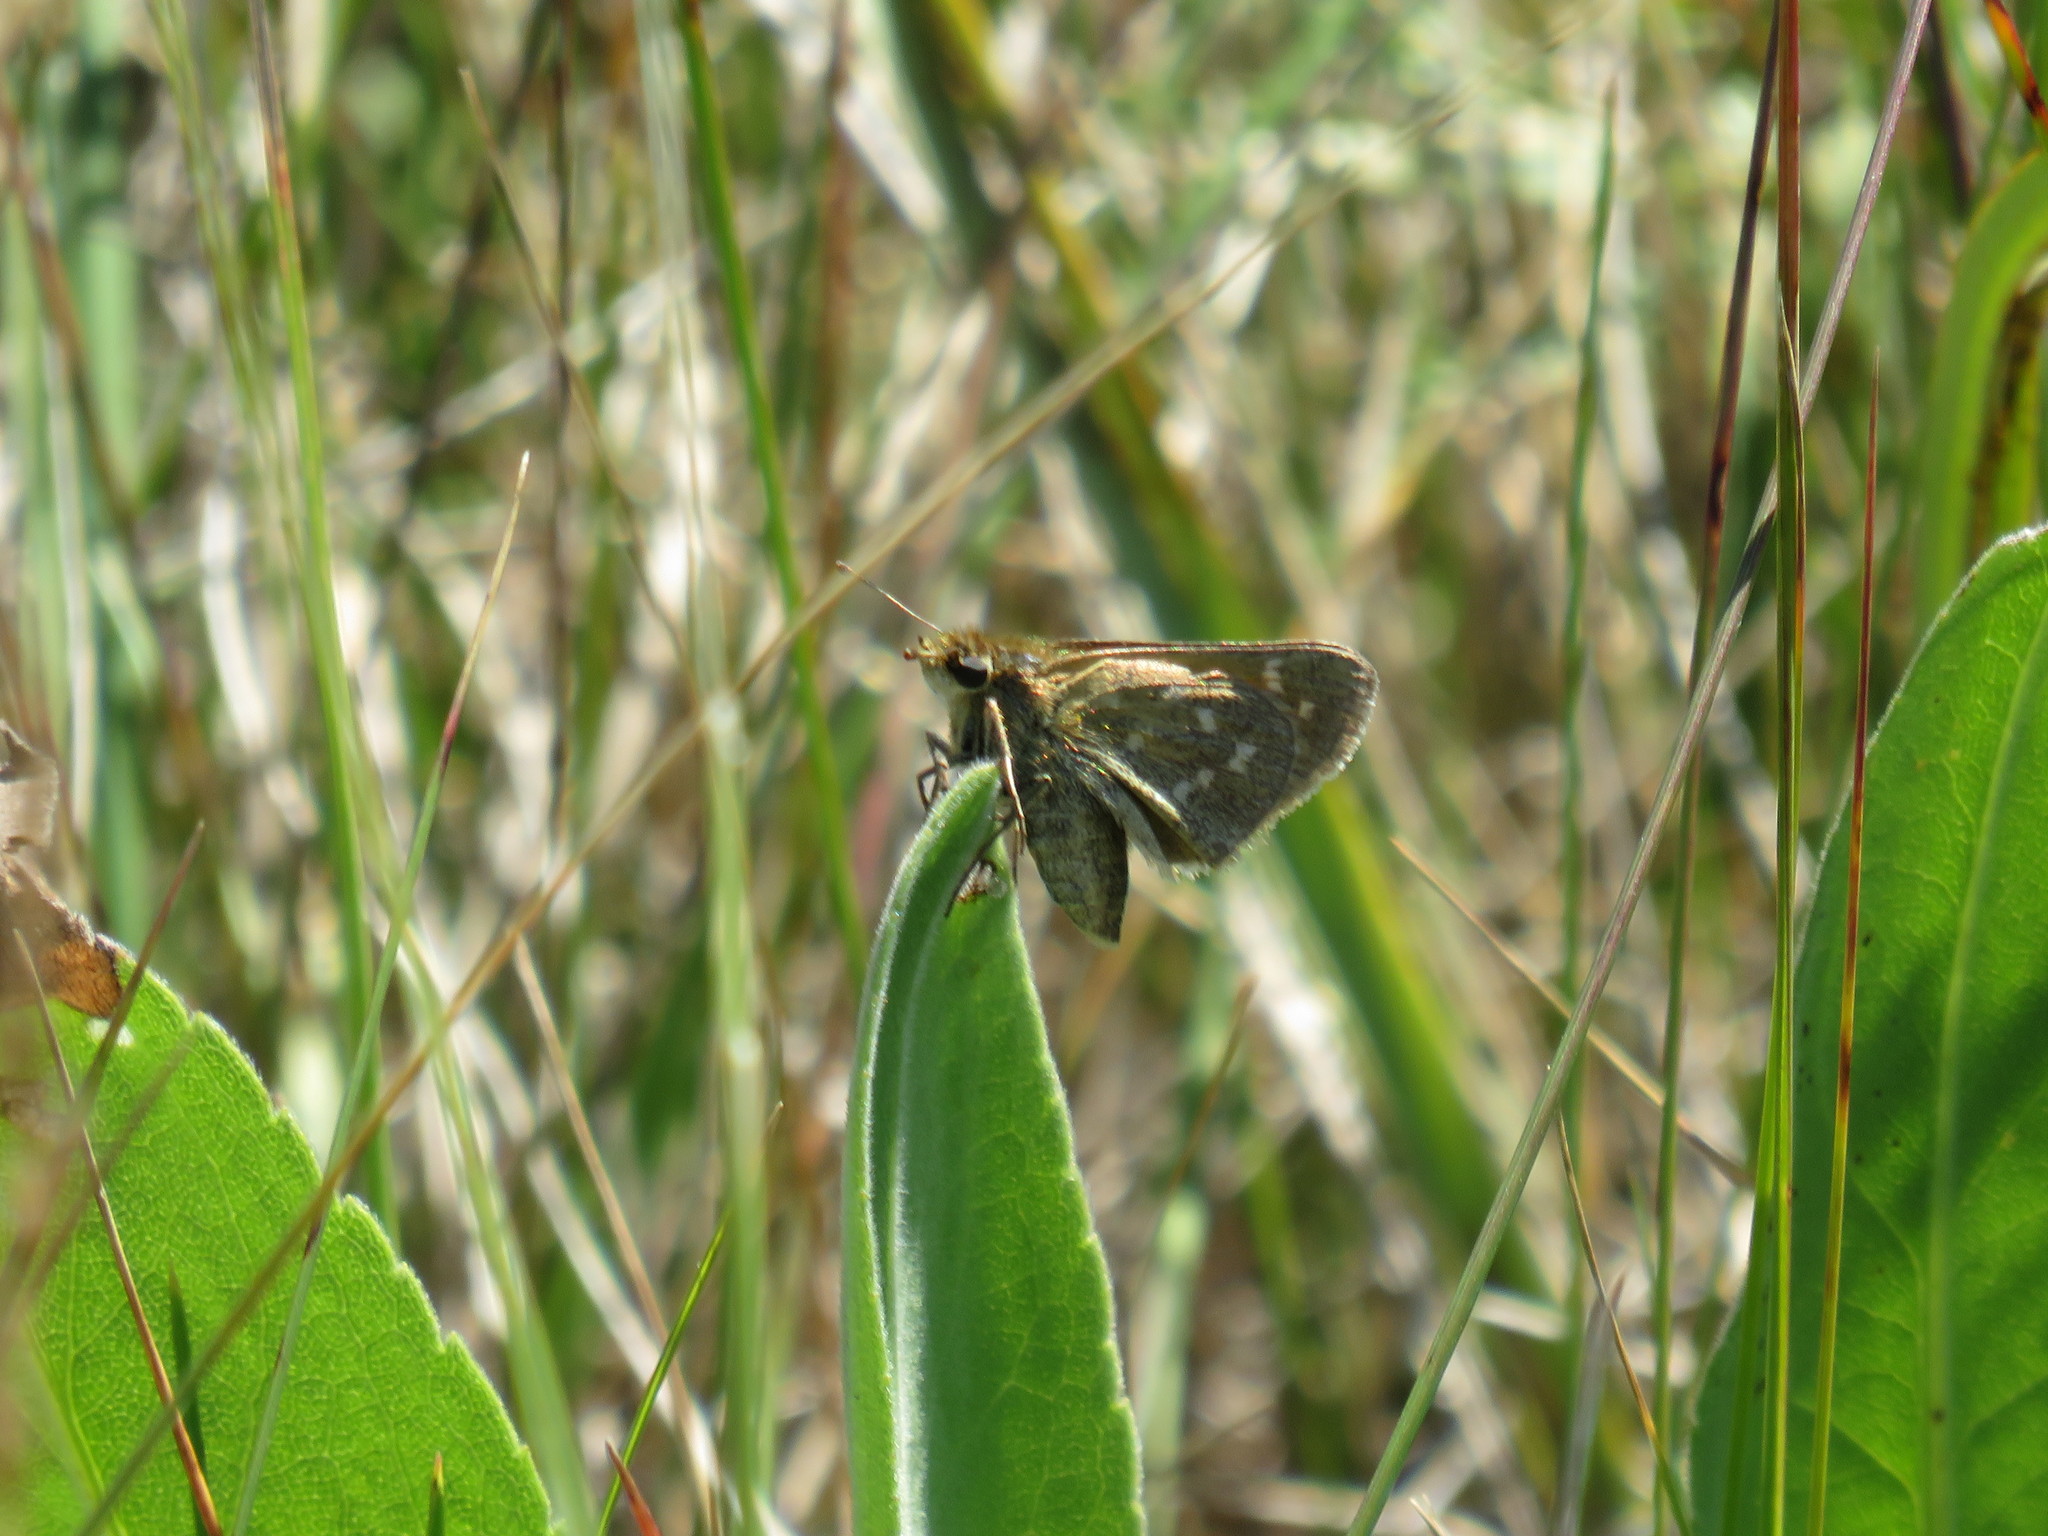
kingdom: Animalia
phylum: Arthropoda
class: Insecta
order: Lepidoptera
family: Hesperiidae
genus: Hesperia
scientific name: Hesperia comma
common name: Common branded skipper
